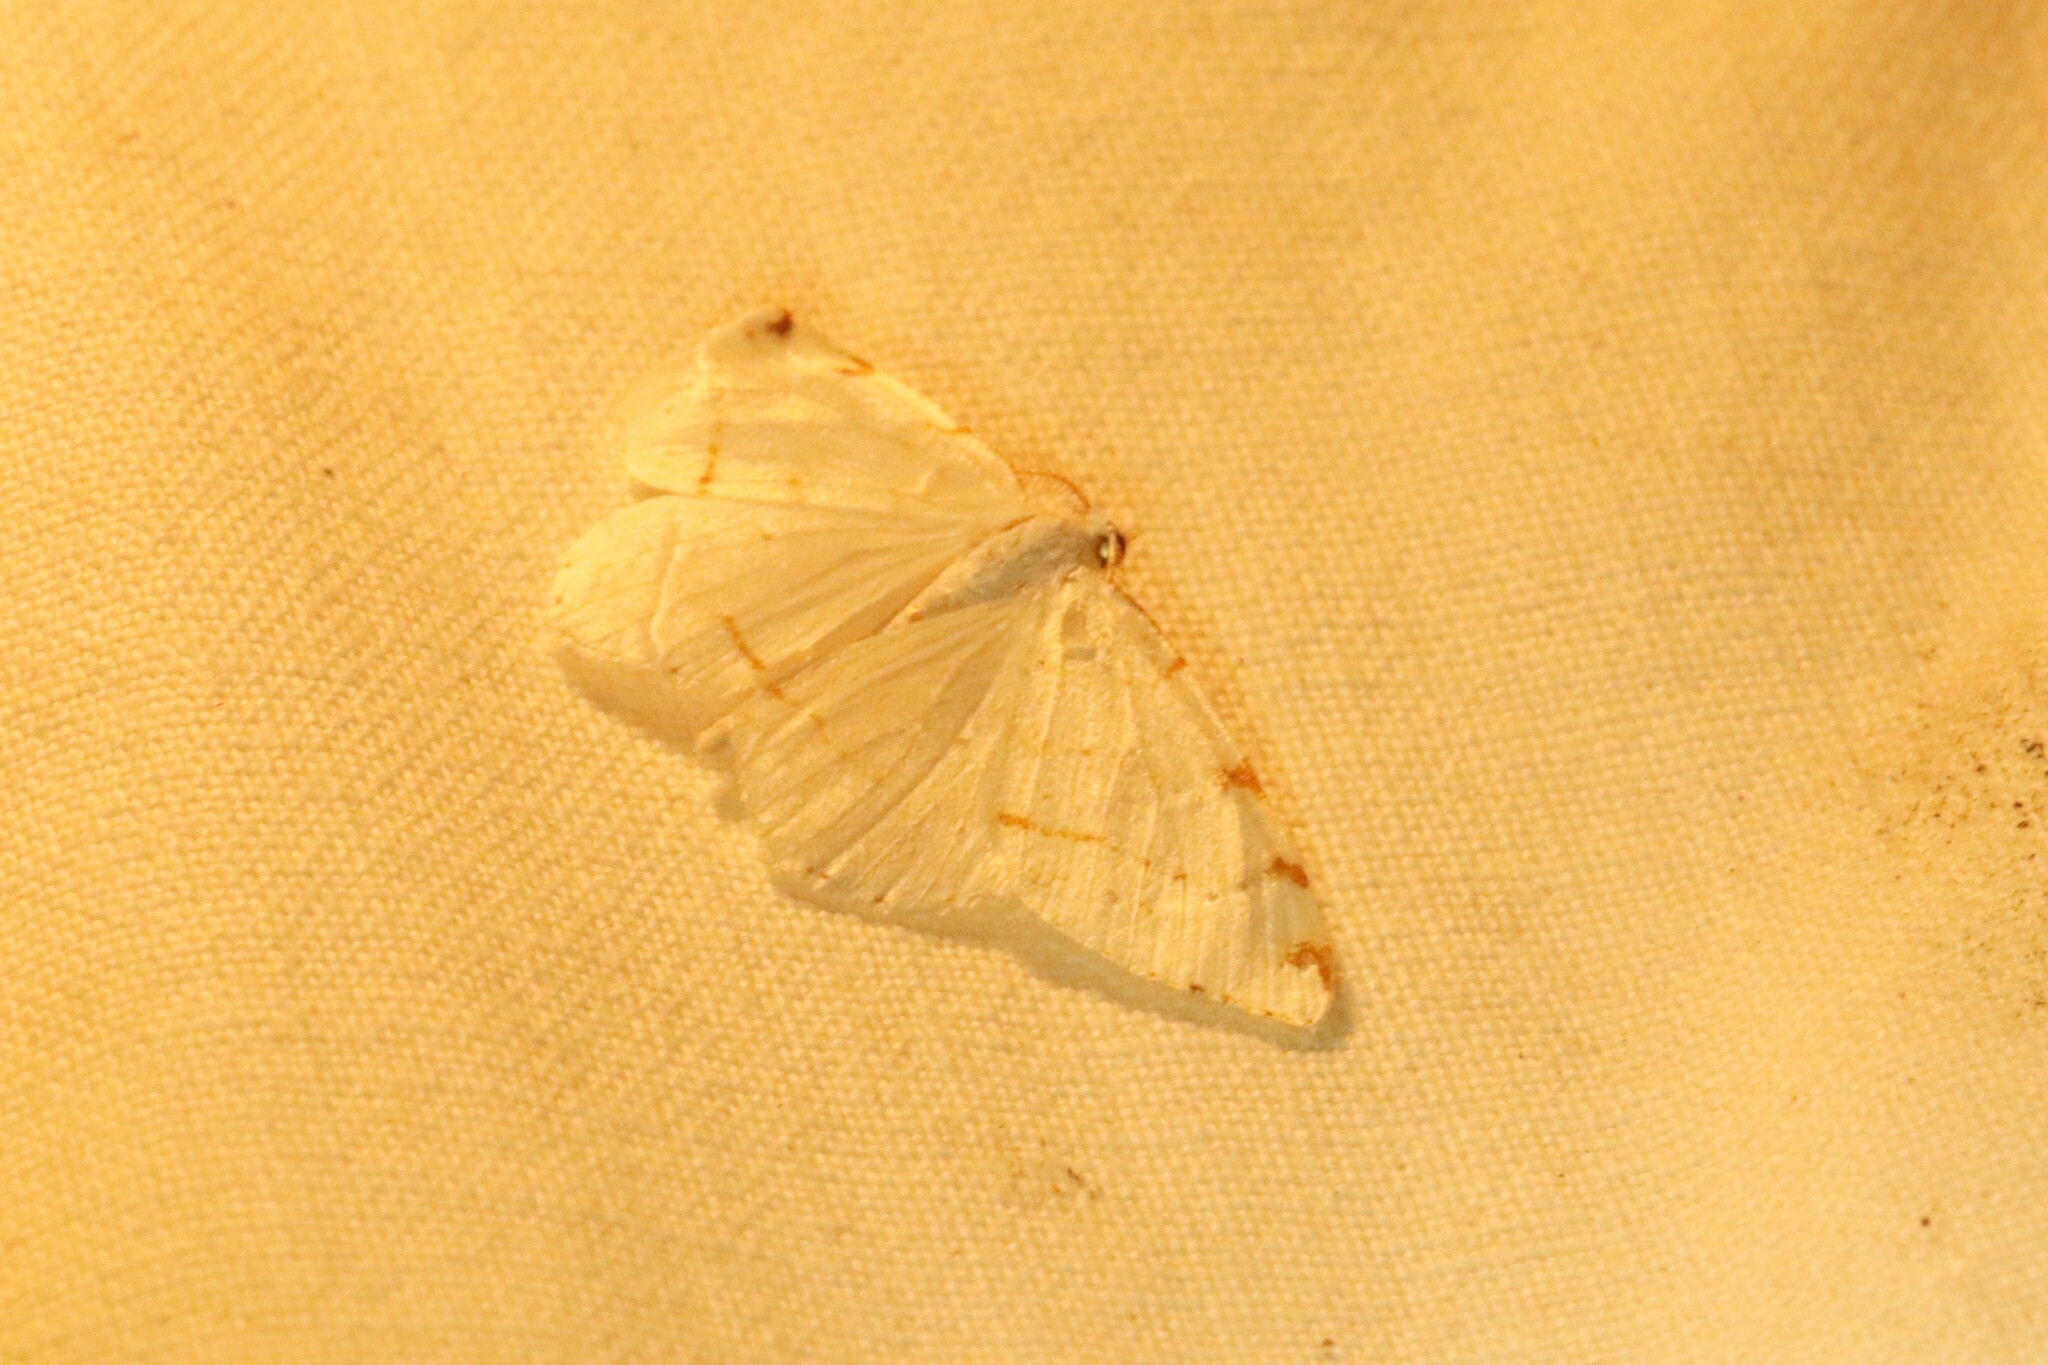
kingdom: Animalia
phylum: Arthropoda
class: Insecta
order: Lepidoptera
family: Geometridae
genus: Macaria
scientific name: Macaria pustularia
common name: Lesser maple spanworm moth
